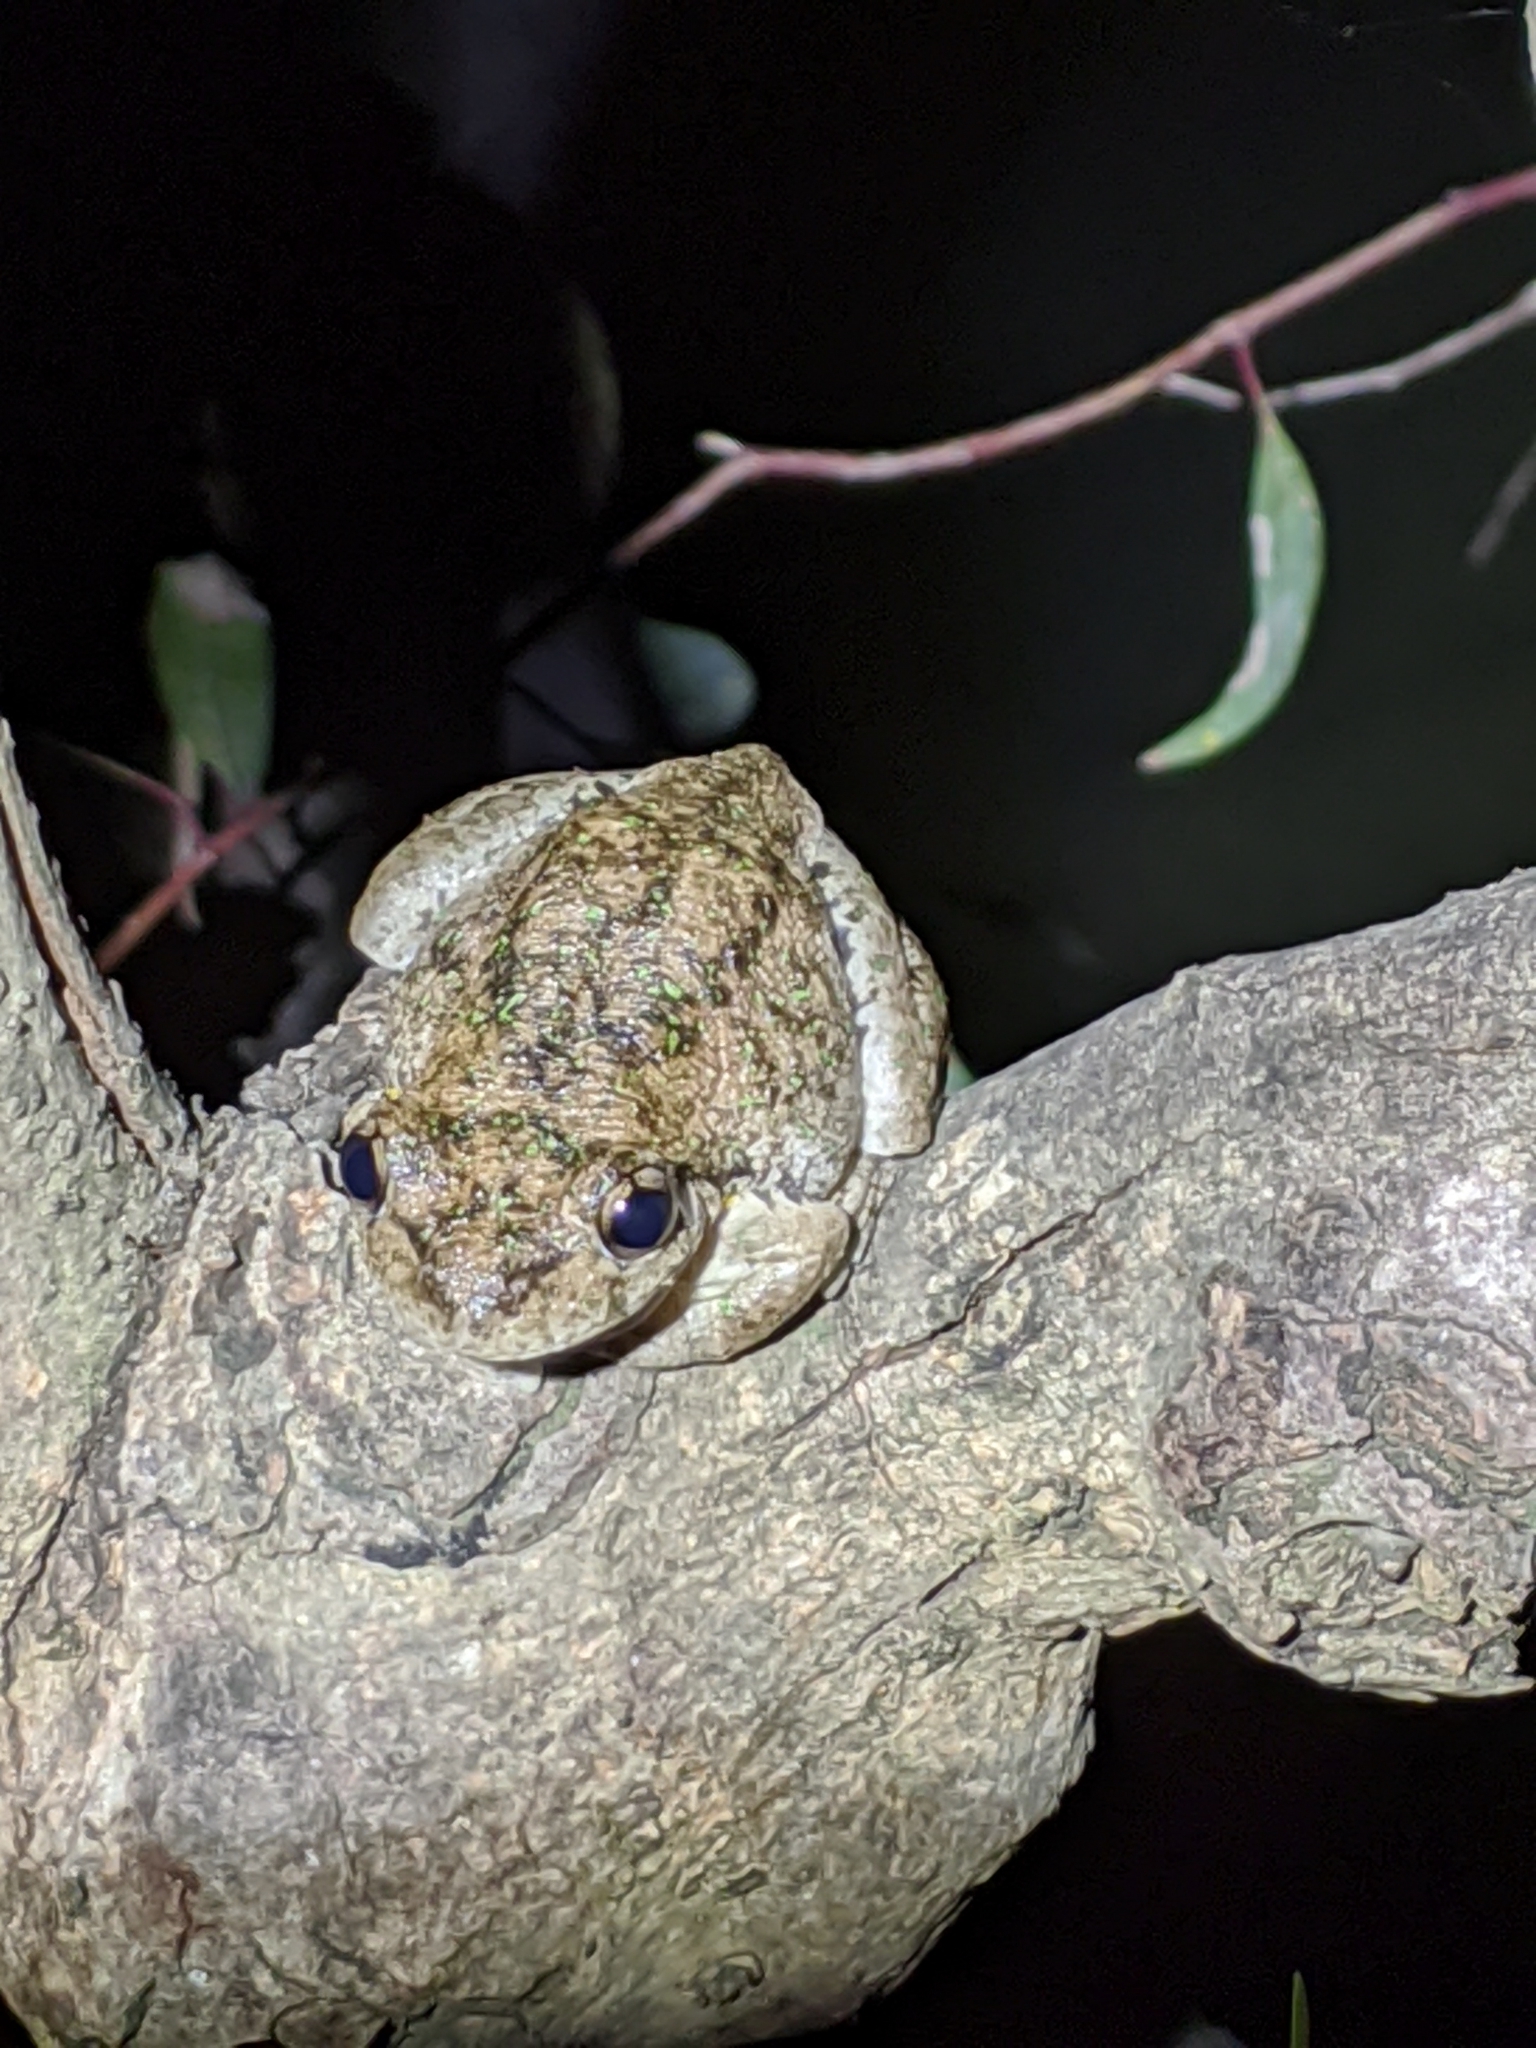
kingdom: Animalia
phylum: Chordata
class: Amphibia
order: Anura
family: Pelodryadidae
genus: Litoria
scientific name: Litoria peronii
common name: Emerald spotted treefrog
